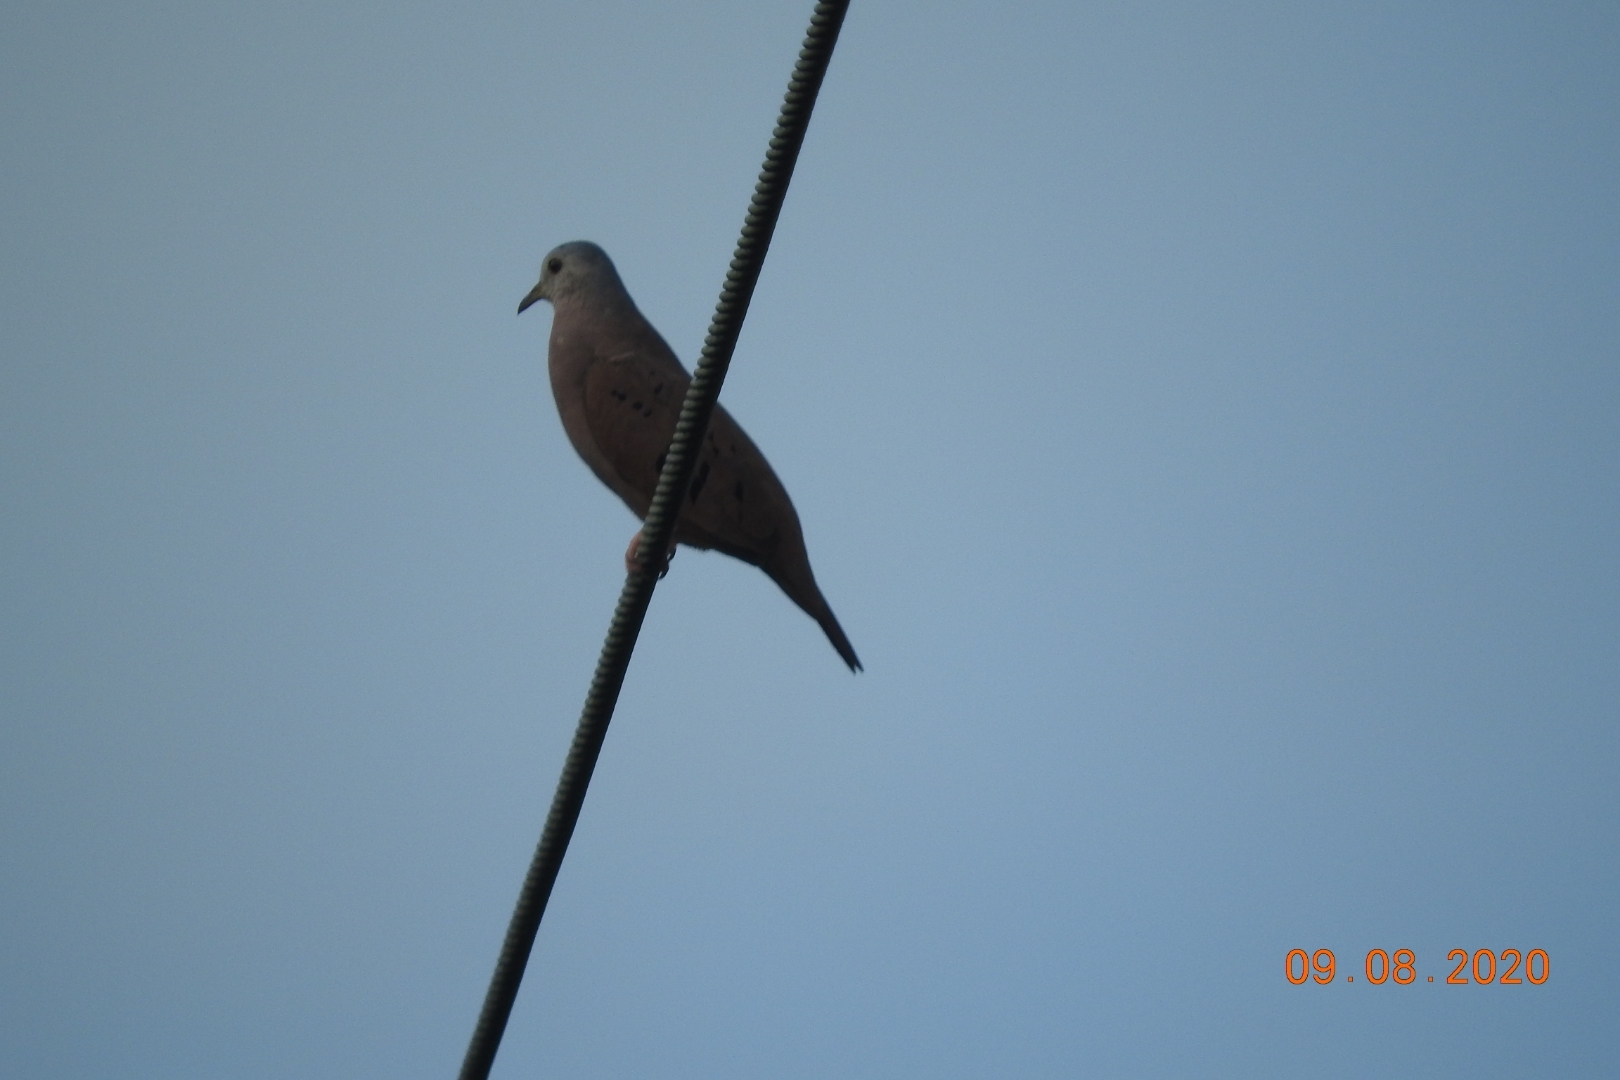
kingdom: Animalia
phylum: Chordata
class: Aves
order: Columbiformes
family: Columbidae
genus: Columbina
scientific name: Columbina talpacoti
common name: Ruddy ground dove
